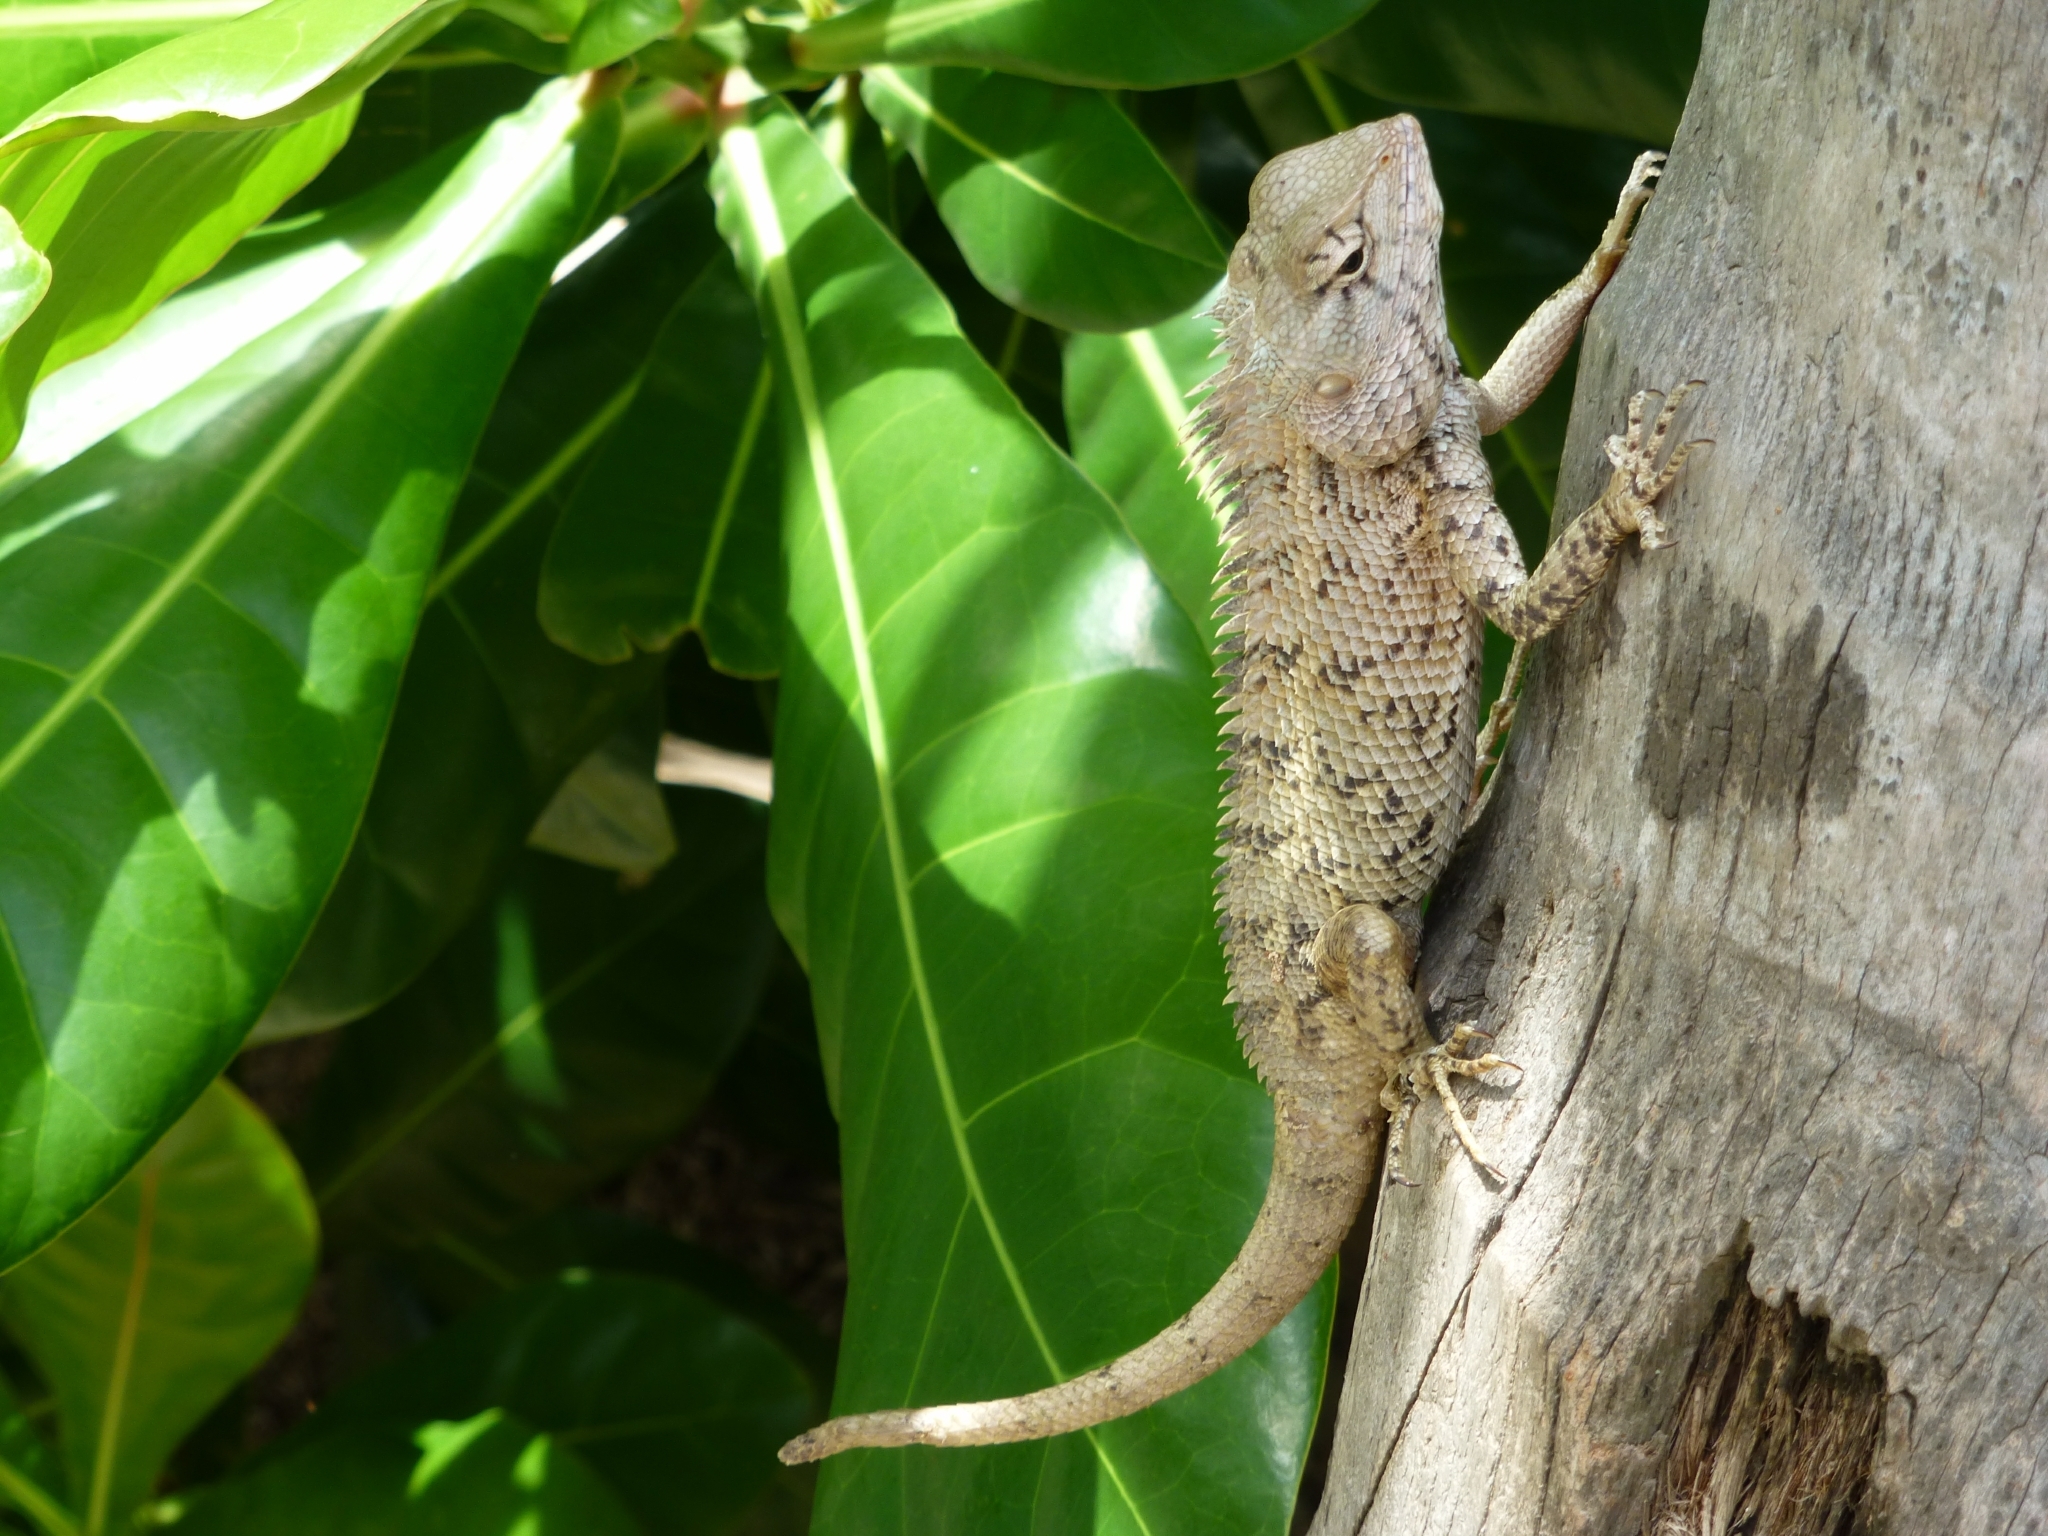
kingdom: Animalia
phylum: Chordata
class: Squamata
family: Agamidae
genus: Calotes
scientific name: Calotes versicolor
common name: Oriental garden lizard
